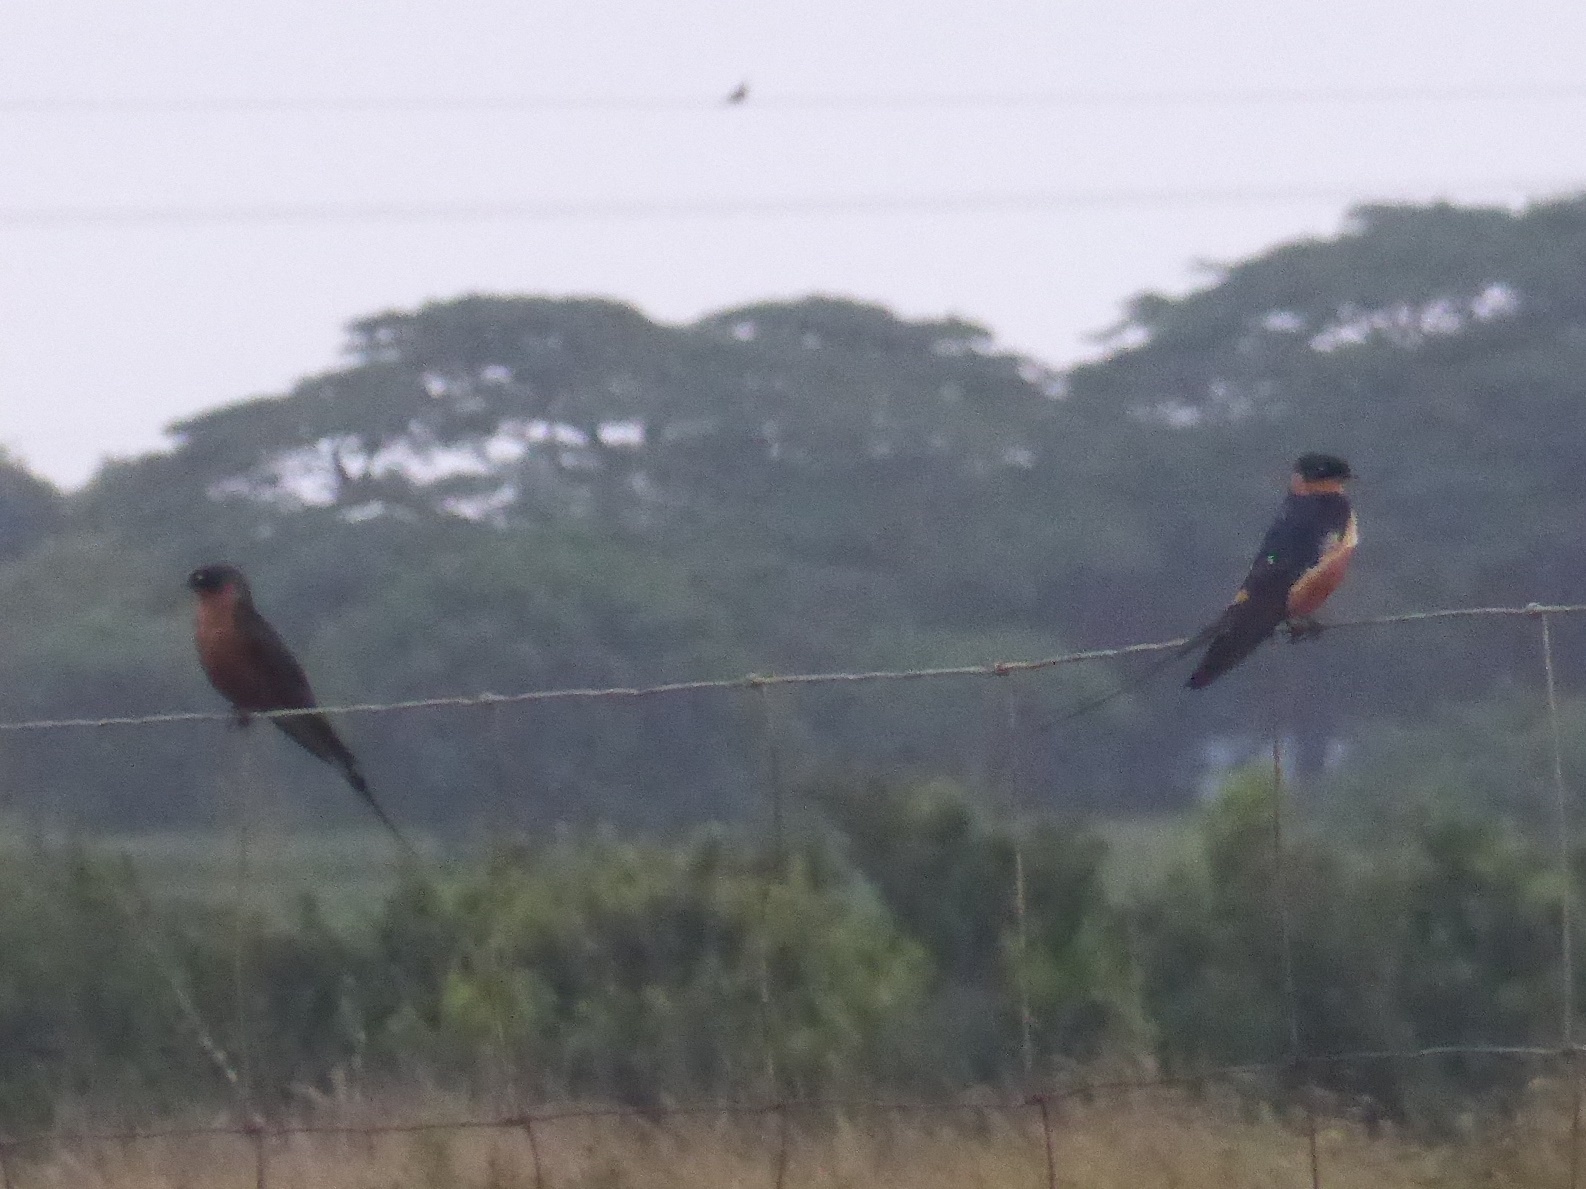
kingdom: Animalia
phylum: Chordata
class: Aves
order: Passeriformes
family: Hirundinidae
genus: Cecropis
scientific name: Cecropis semirufa
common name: Red-breasted swallow
